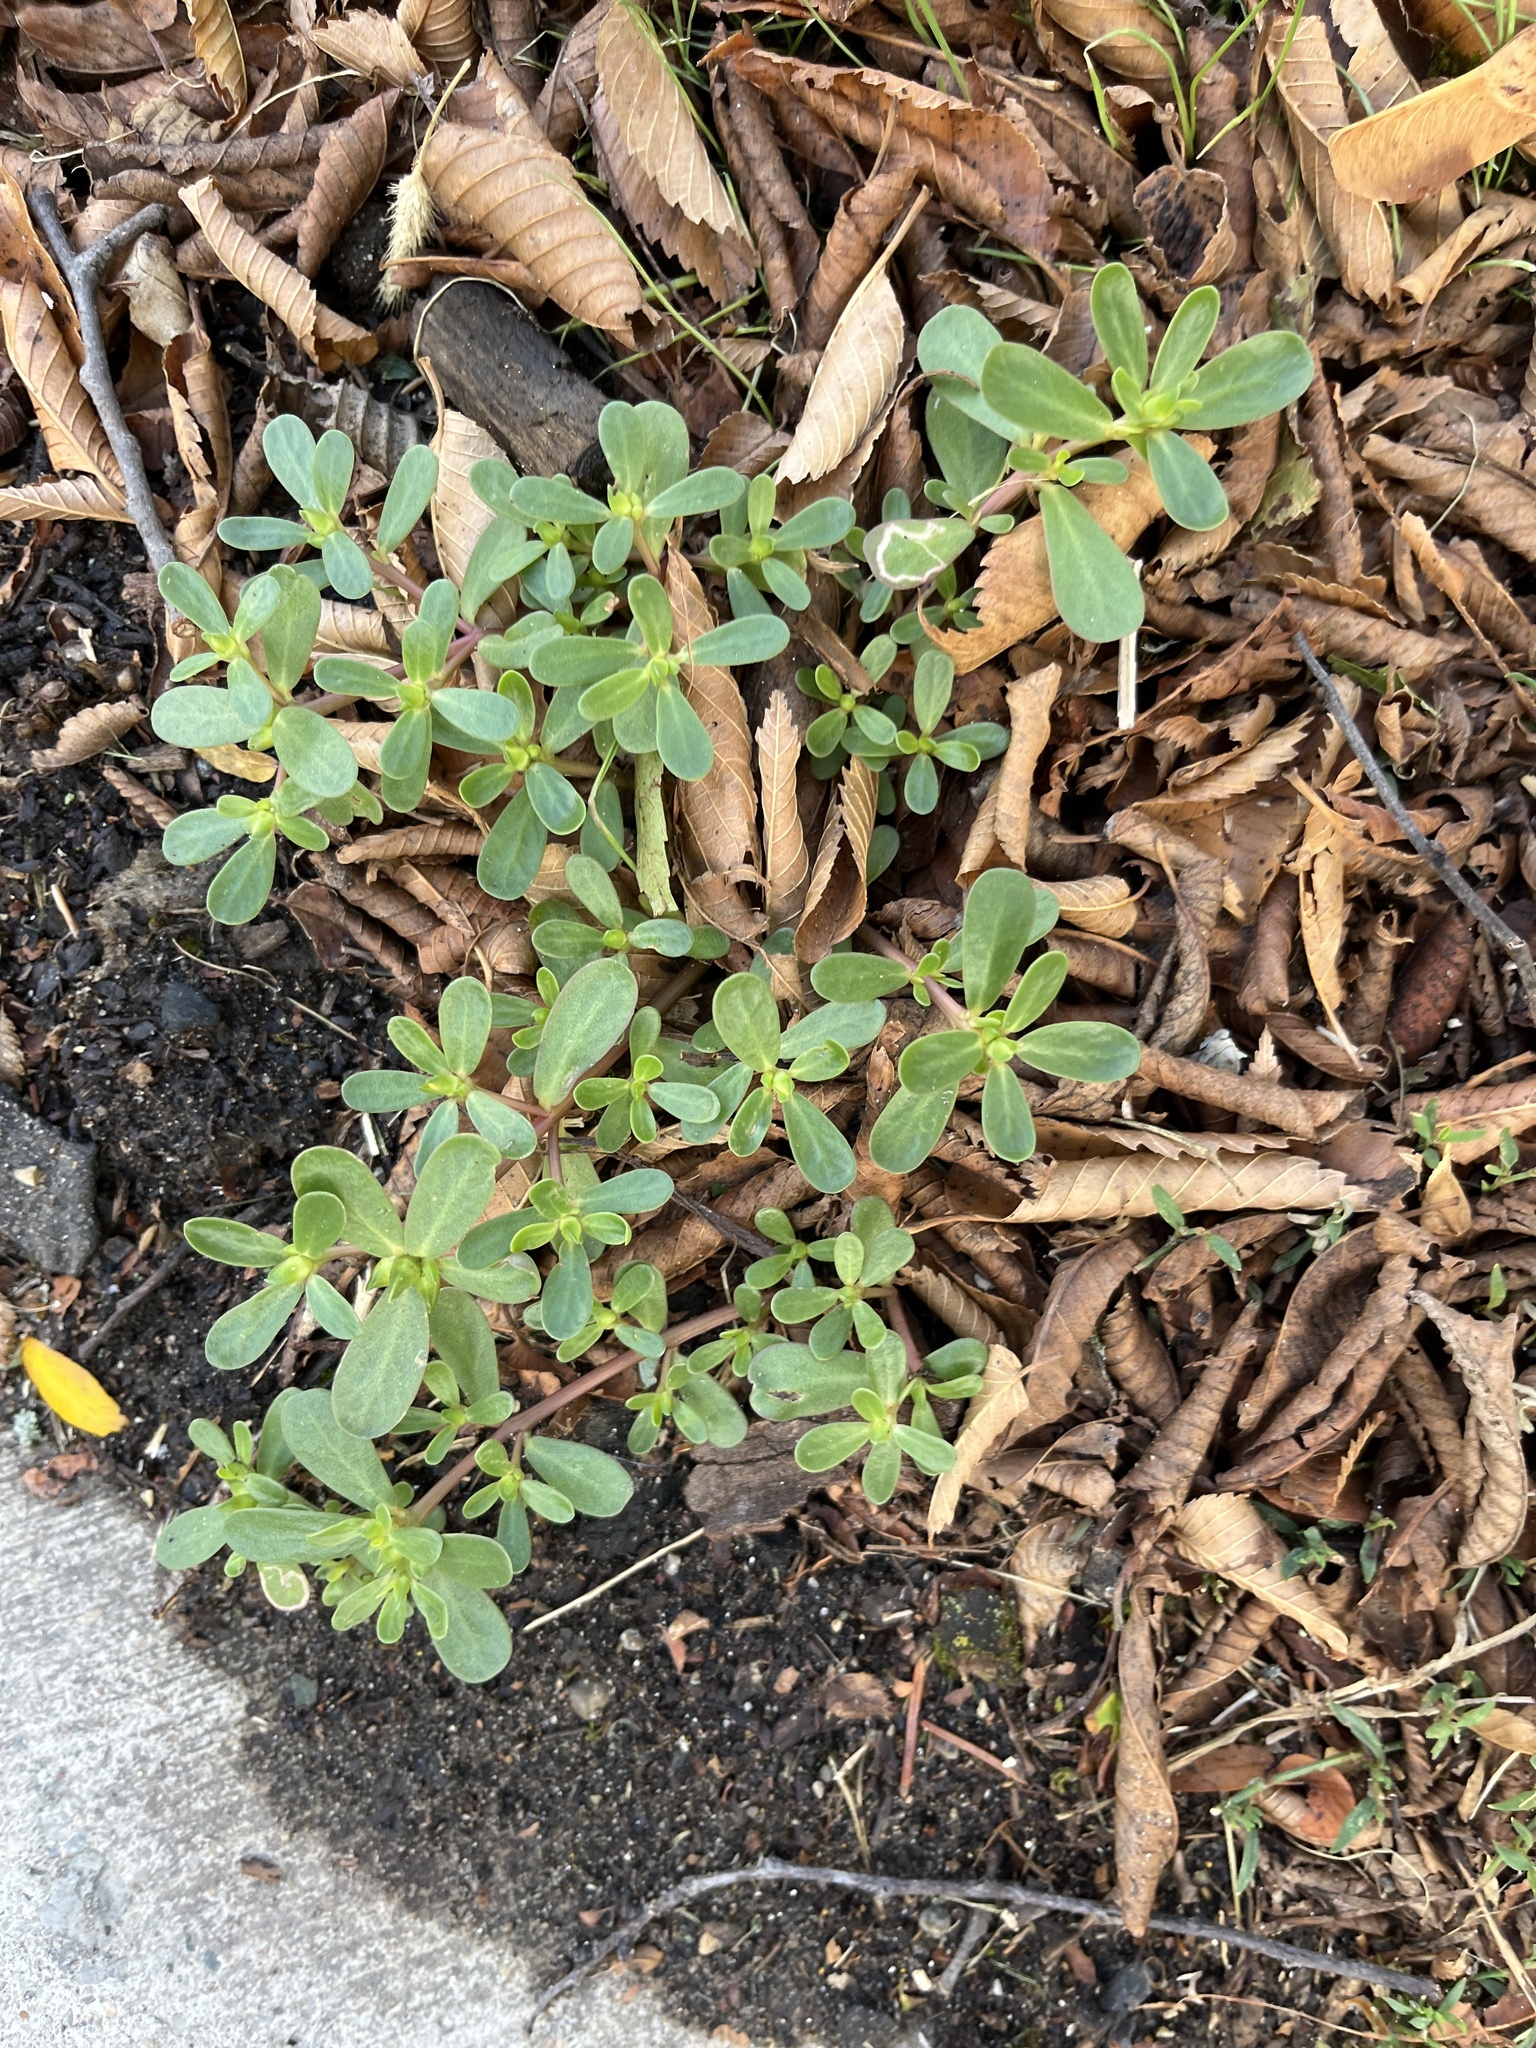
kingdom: Plantae
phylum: Tracheophyta
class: Magnoliopsida
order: Caryophyllales
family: Portulacaceae
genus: Portulaca
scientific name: Portulaca oleracea
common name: Common purslane
